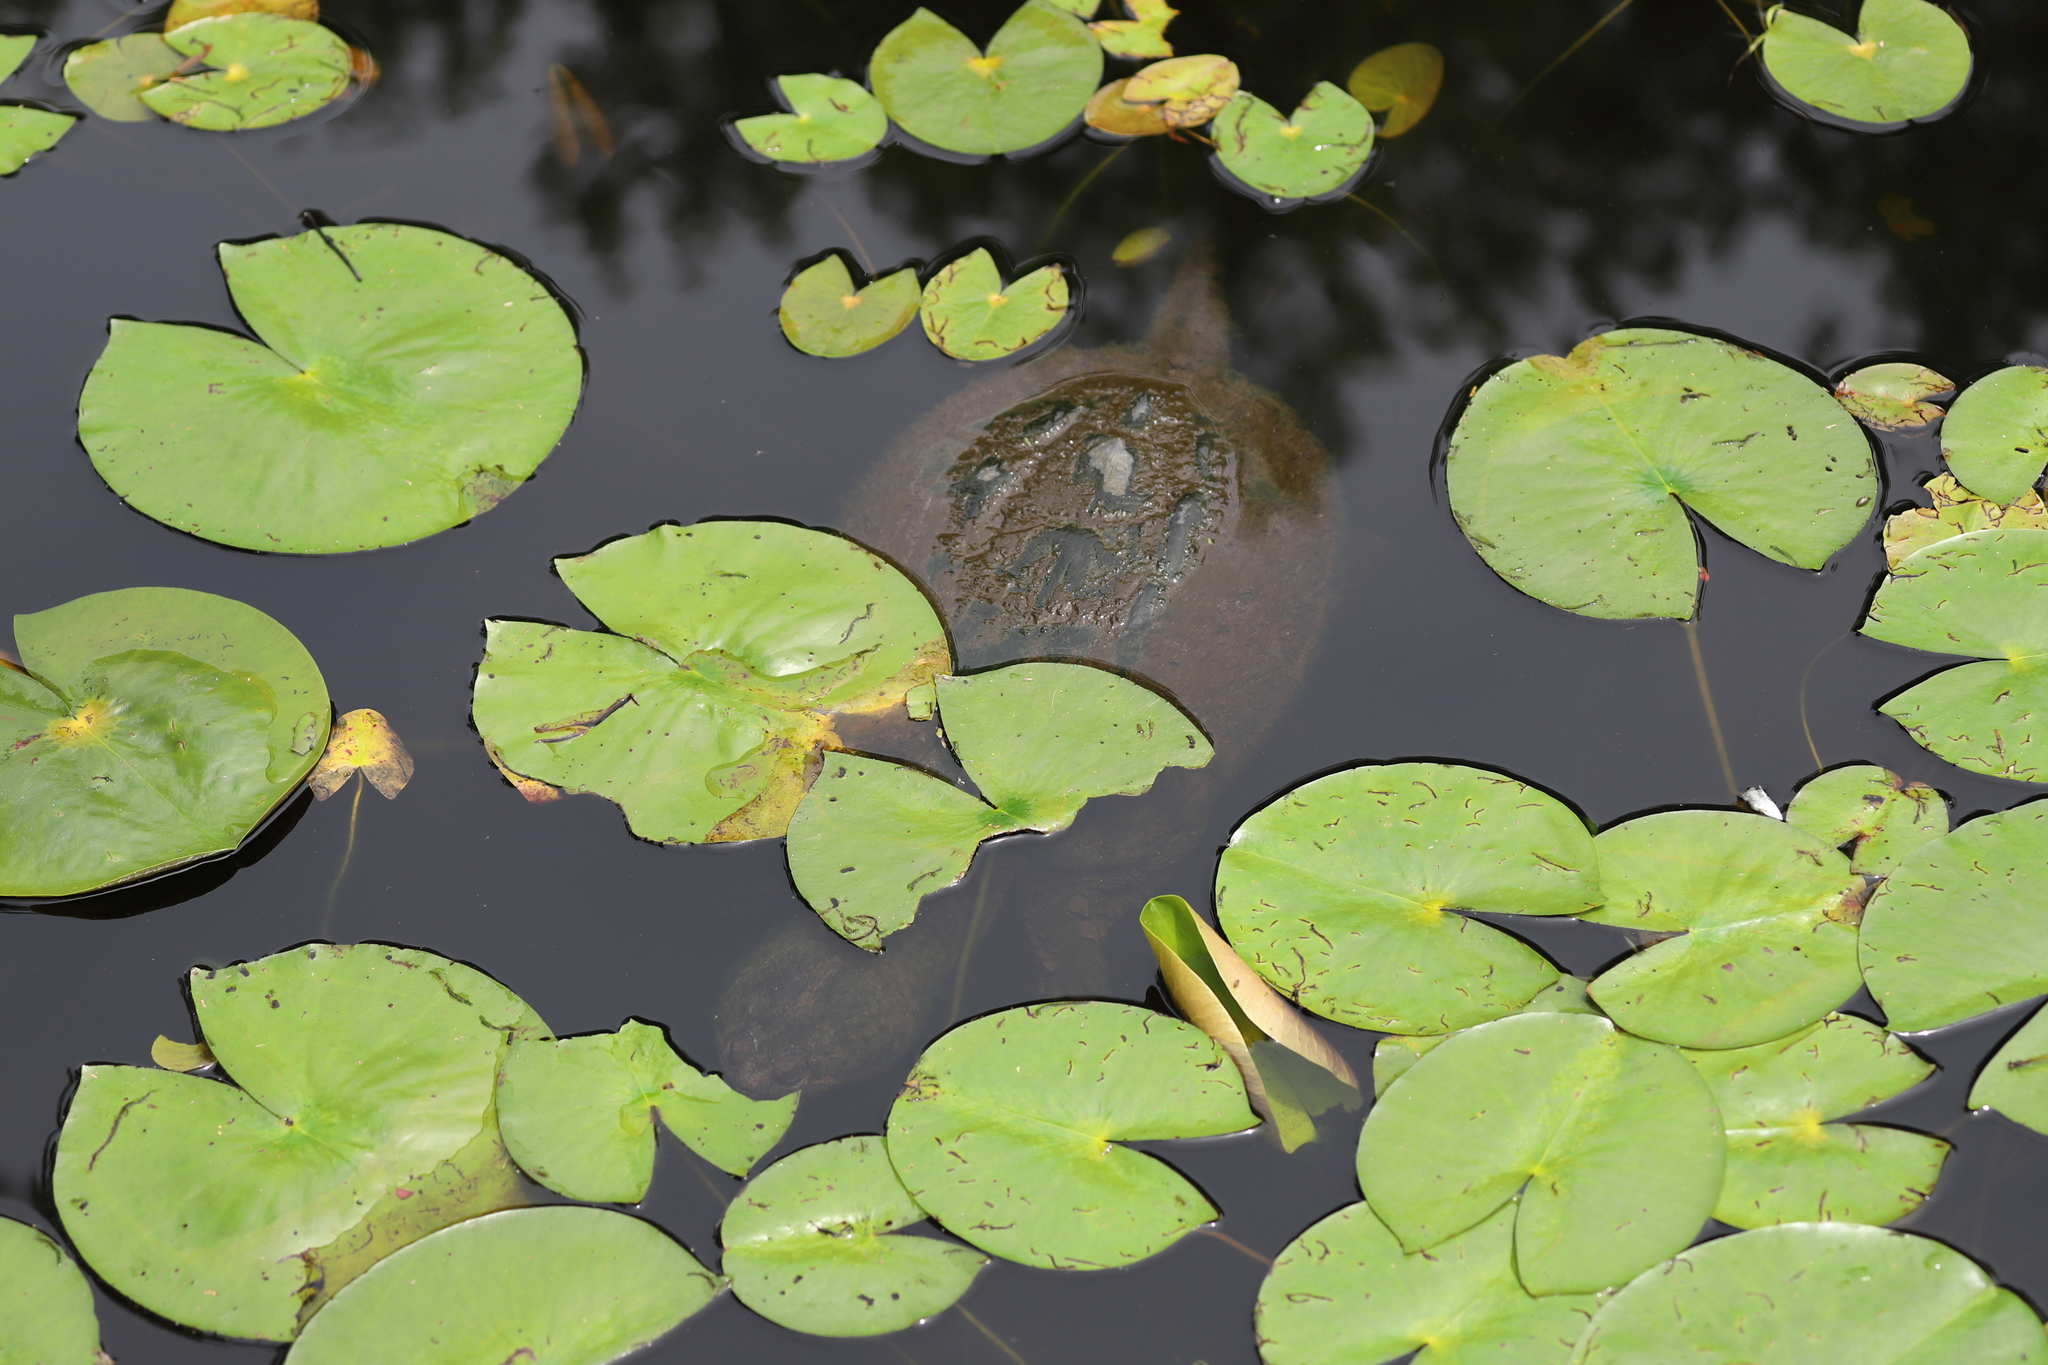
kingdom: Animalia
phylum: Chordata
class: Testudines
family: Chelydridae
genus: Chelydra
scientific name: Chelydra serpentina
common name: Common snapping turtle
